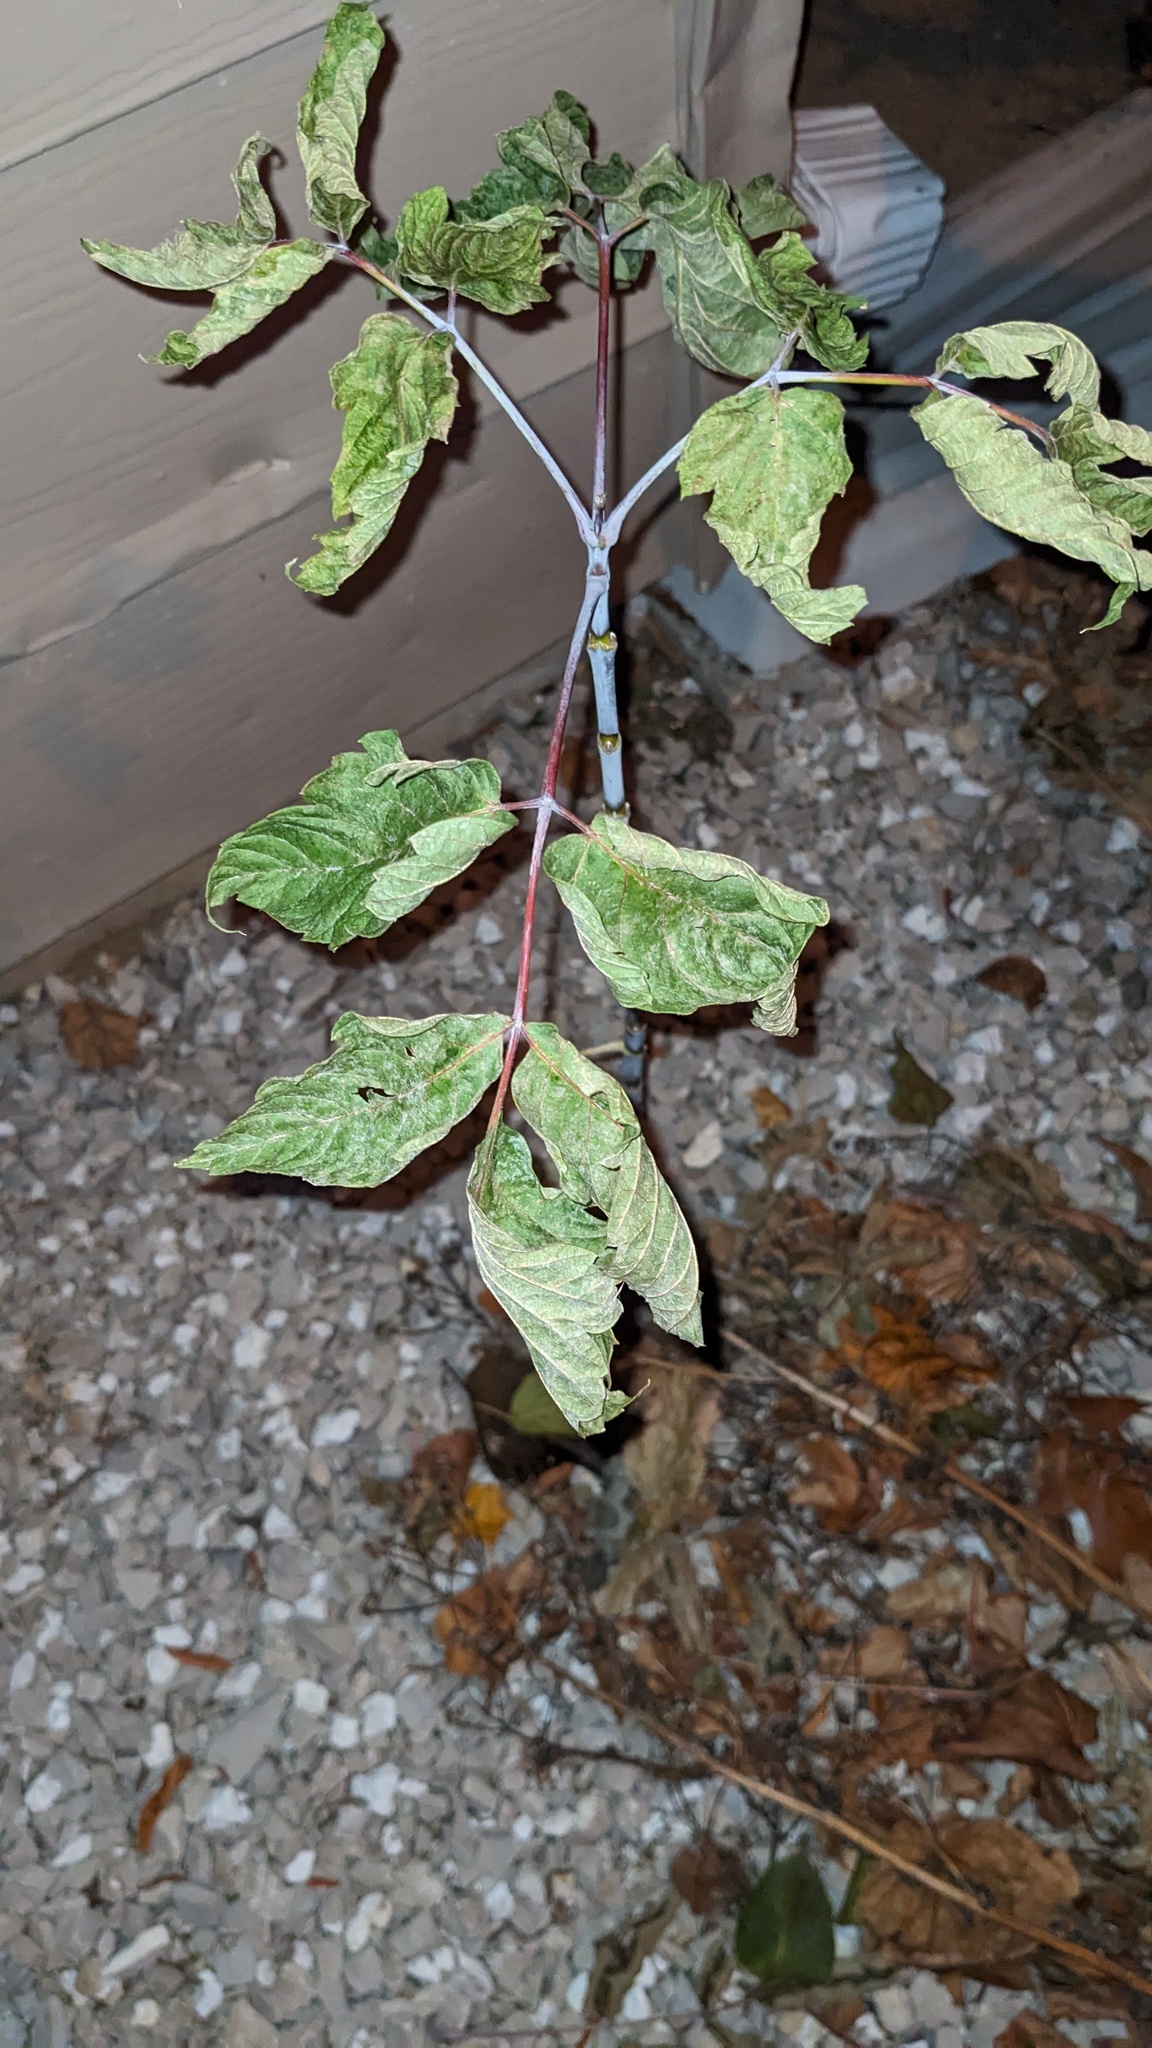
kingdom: Plantae
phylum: Tracheophyta
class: Magnoliopsida
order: Sapindales
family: Sapindaceae
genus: Acer
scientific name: Acer negundo
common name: Ashleaf maple
